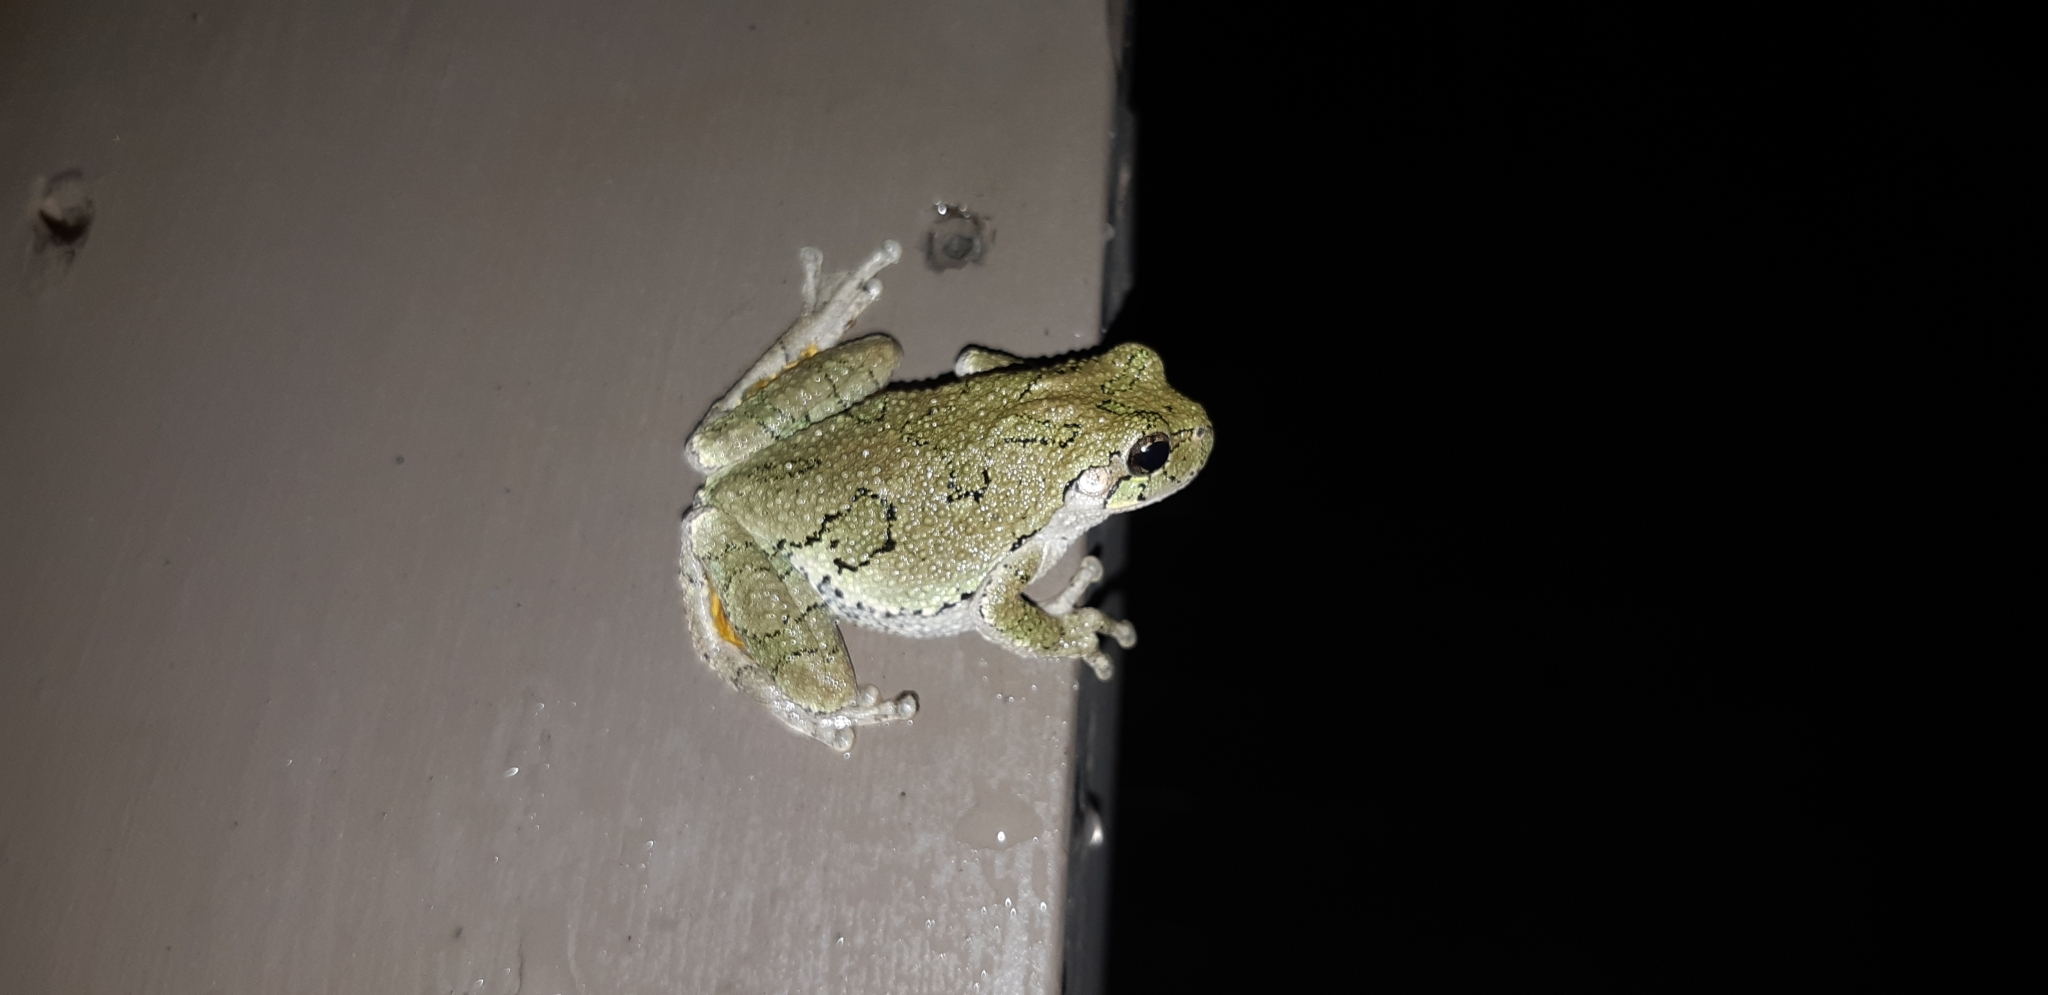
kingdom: Animalia
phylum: Chordata
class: Amphibia
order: Anura
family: Hylidae
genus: Dryophytes
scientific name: Dryophytes versicolor
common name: Gray treefrog
